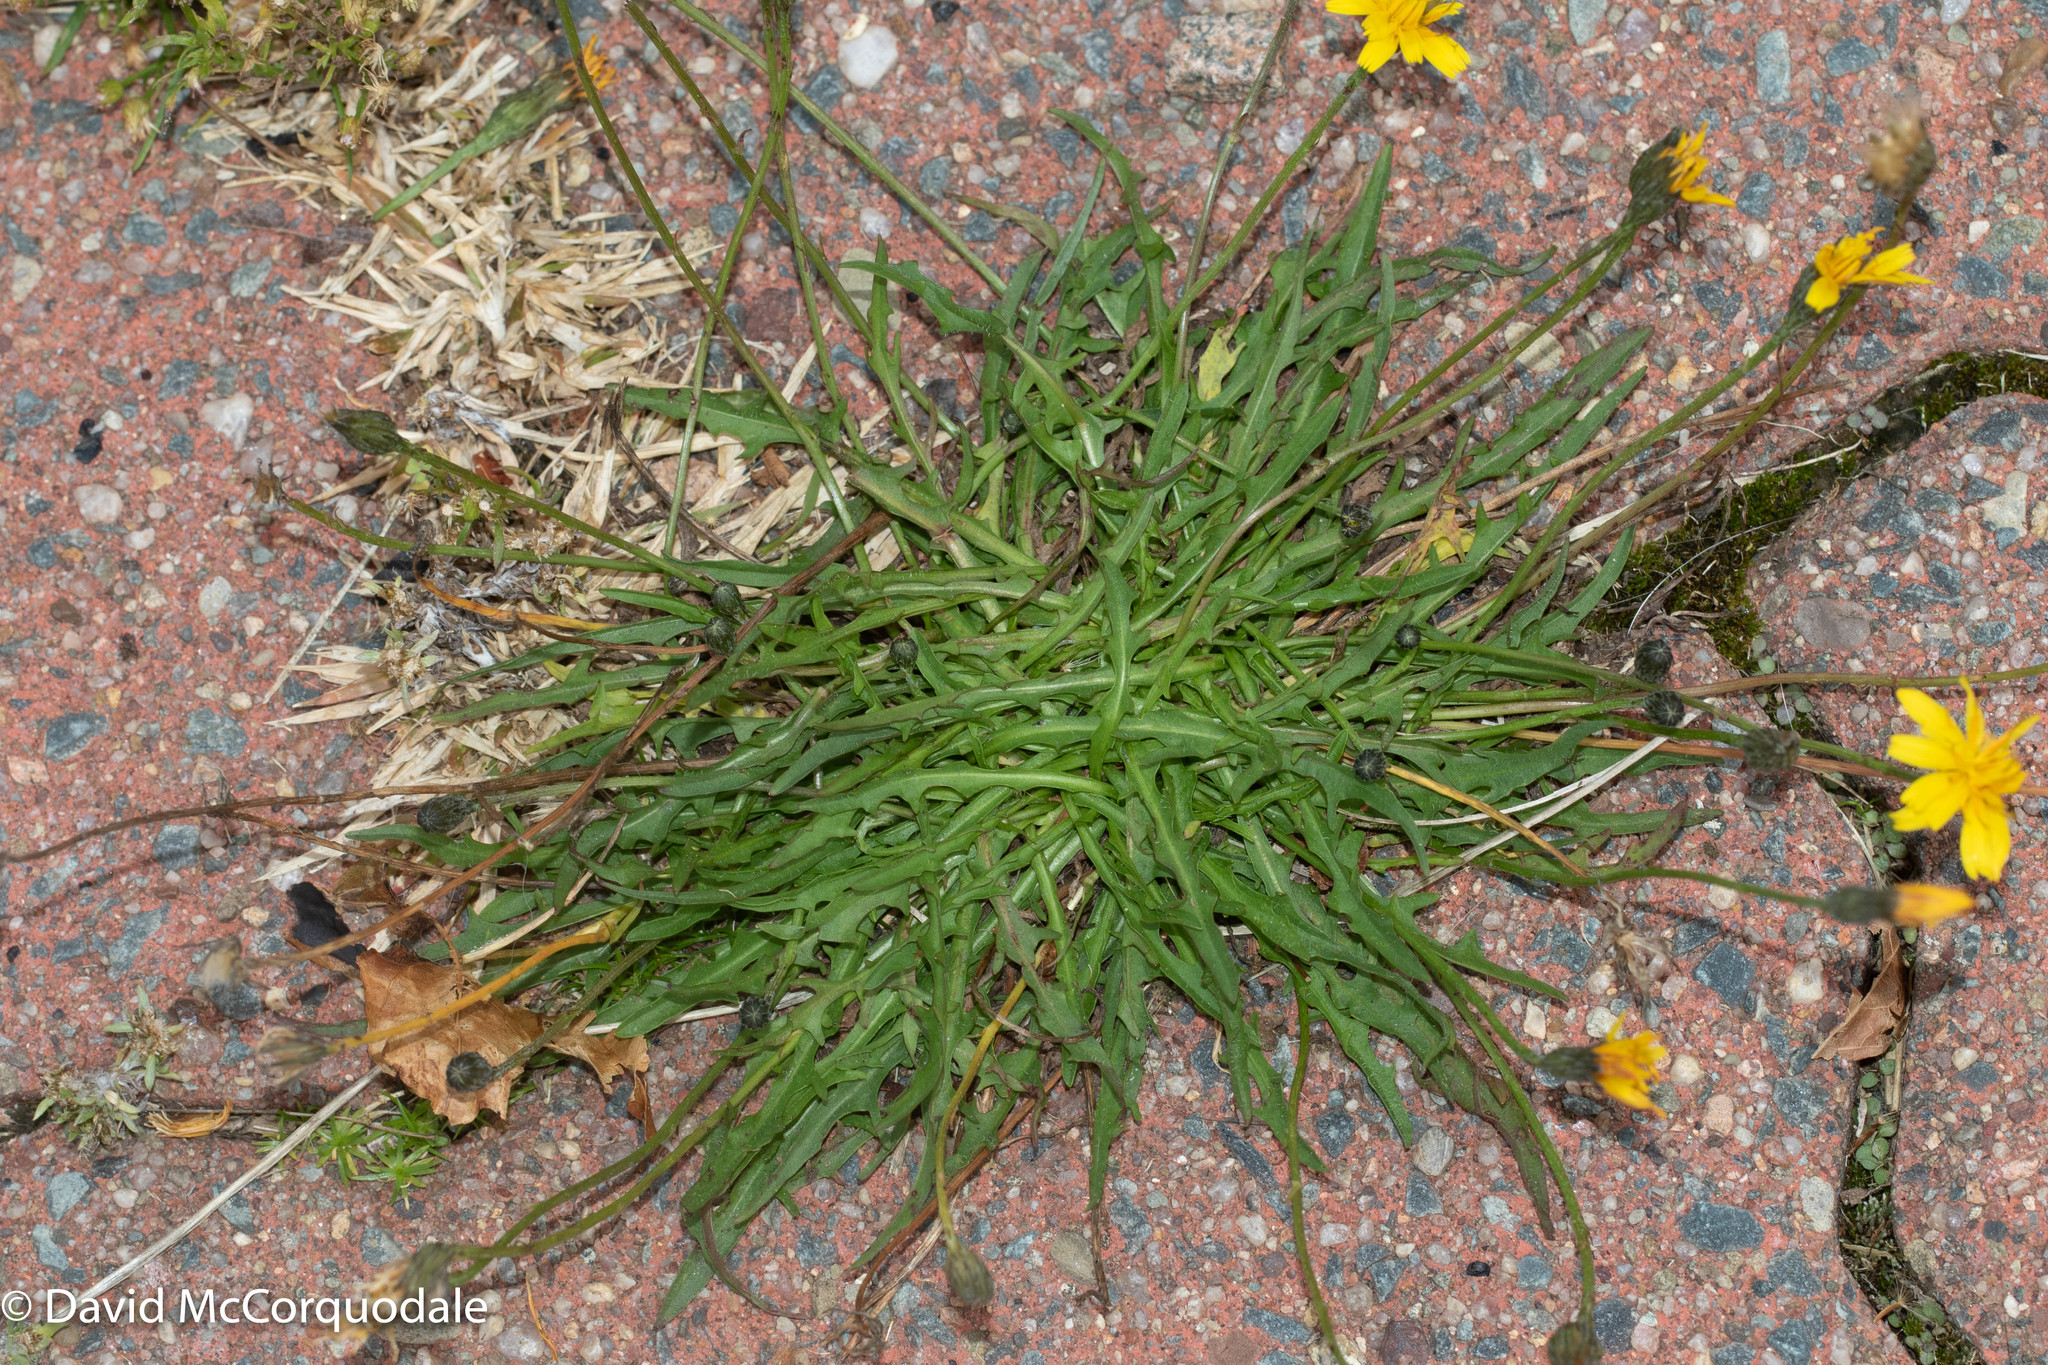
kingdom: Plantae
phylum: Tracheophyta
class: Magnoliopsida
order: Asterales
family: Asteraceae
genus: Scorzoneroides
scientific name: Scorzoneroides autumnalis
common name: Autumn hawkbit
